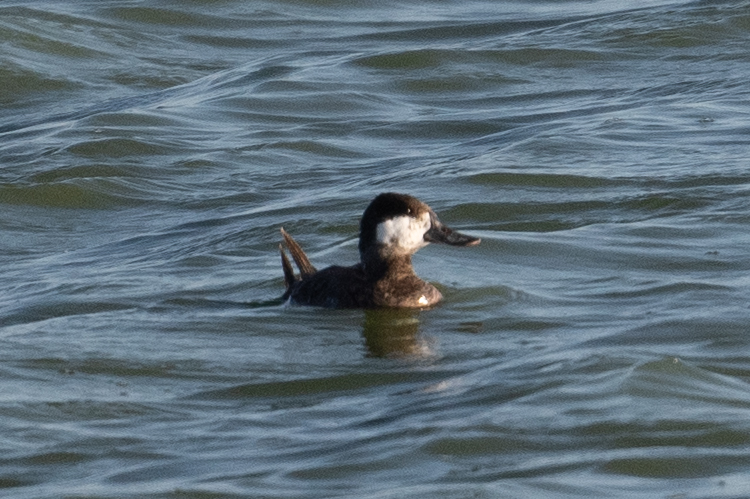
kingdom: Animalia
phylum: Chordata
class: Aves
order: Anseriformes
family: Anatidae
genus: Oxyura
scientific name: Oxyura jamaicensis
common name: Ruddy duck
